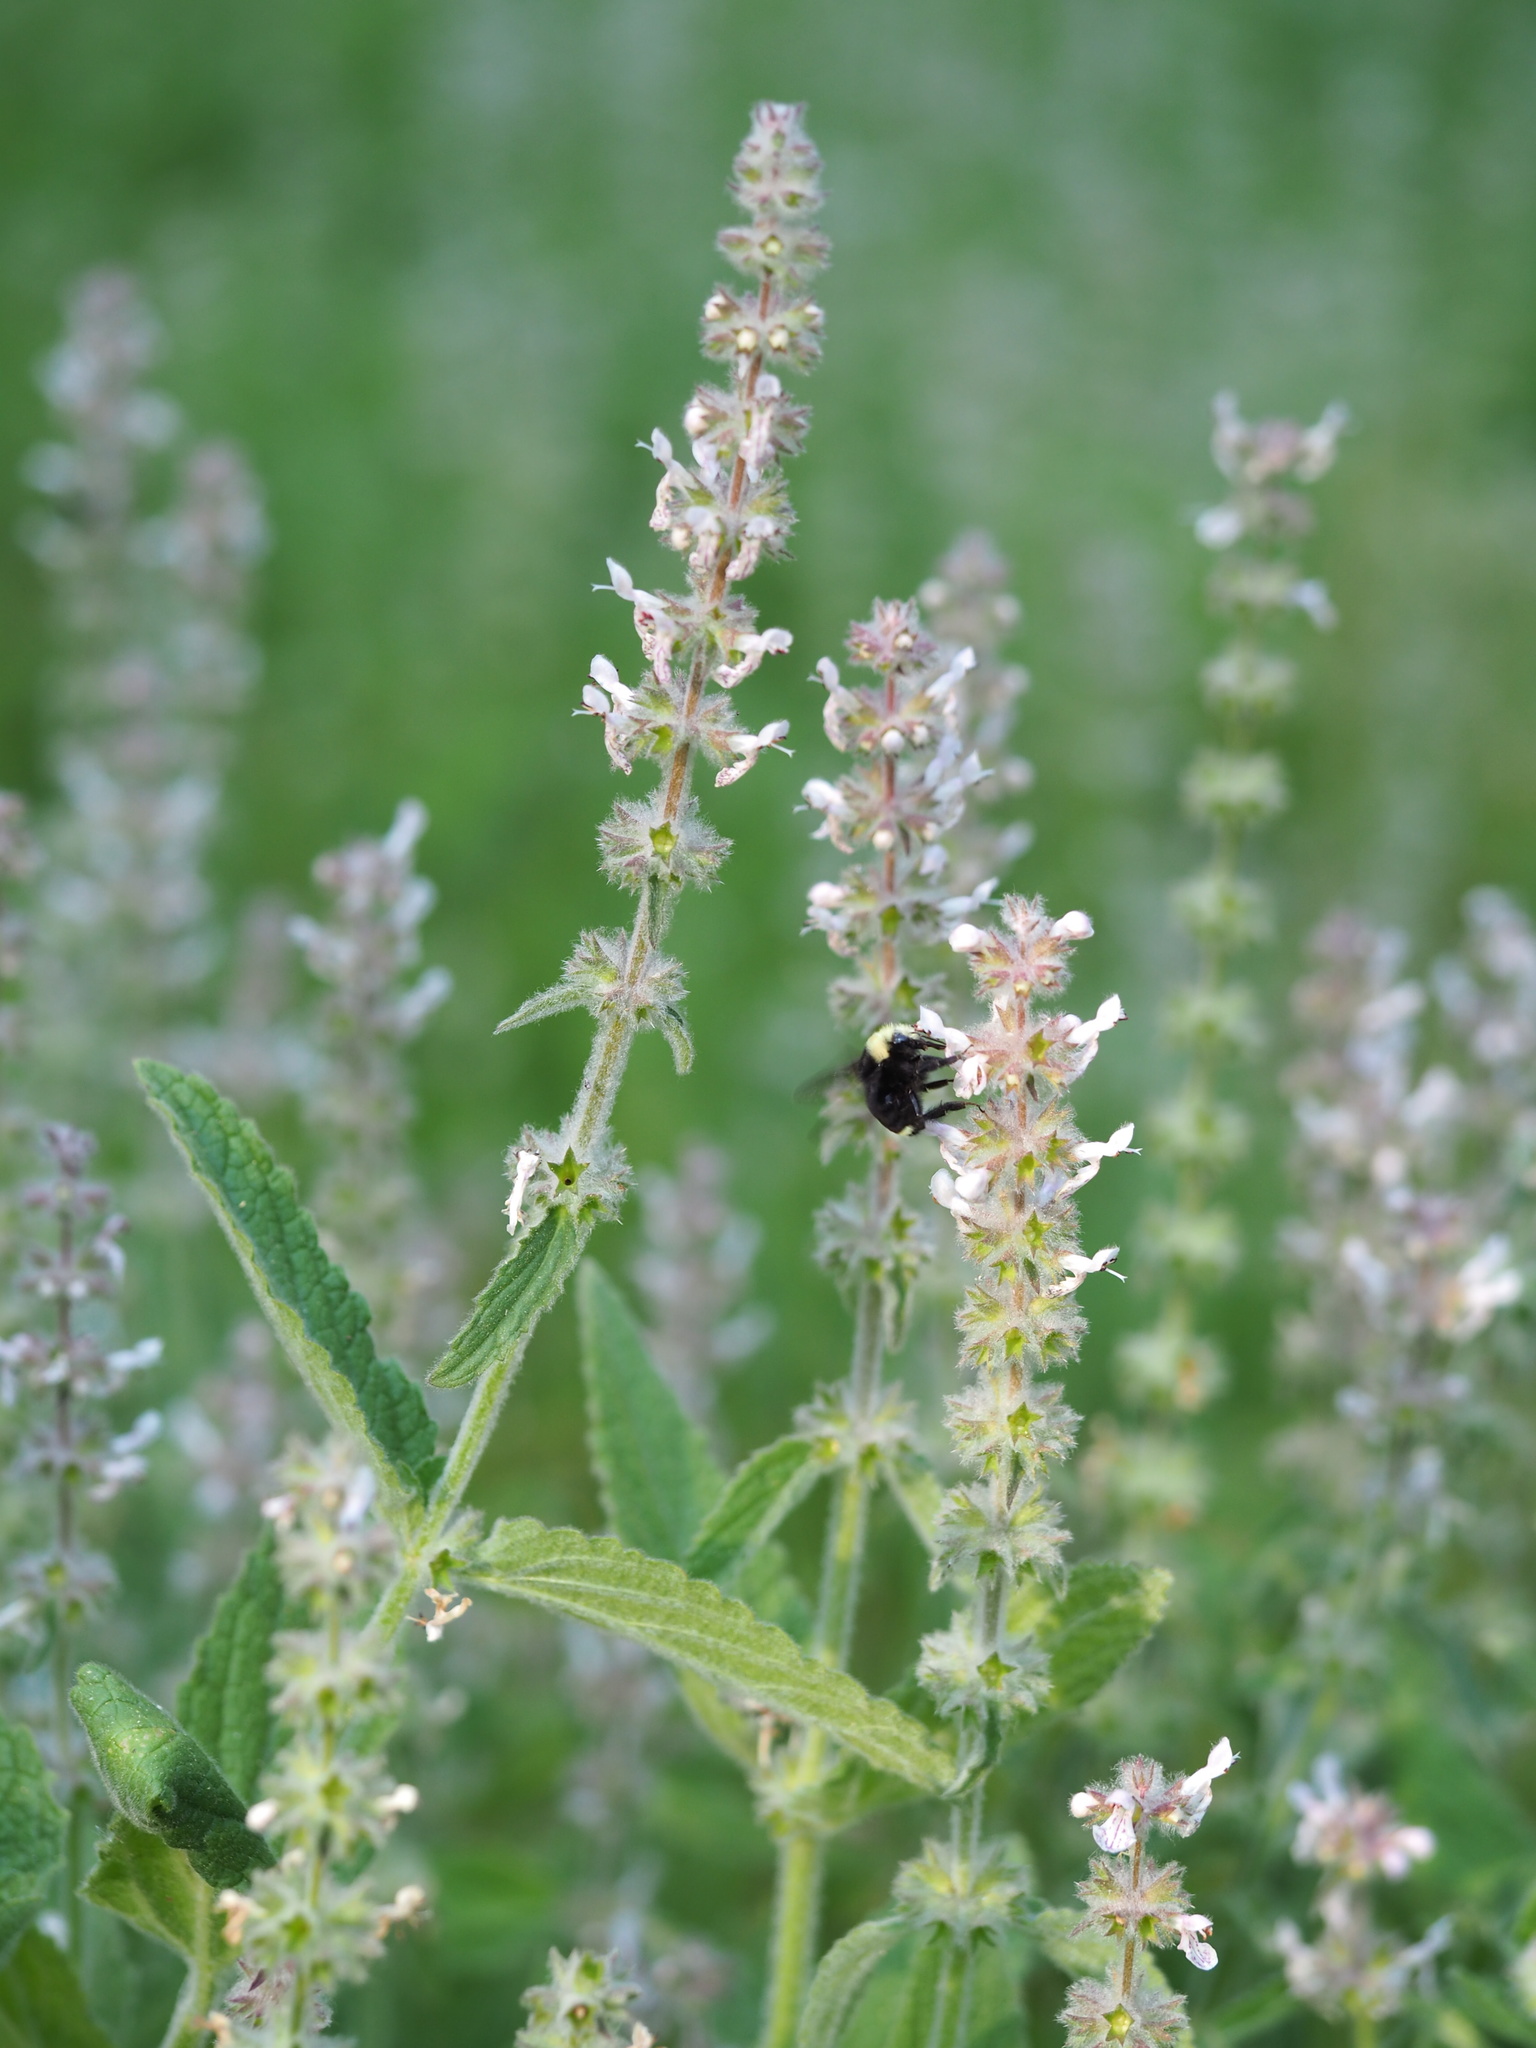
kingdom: Plantae
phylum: Tracheophyta
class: Magnoliopsida
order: Lamiales
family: Lamiaceae
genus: Stachys
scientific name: Stachys albens
